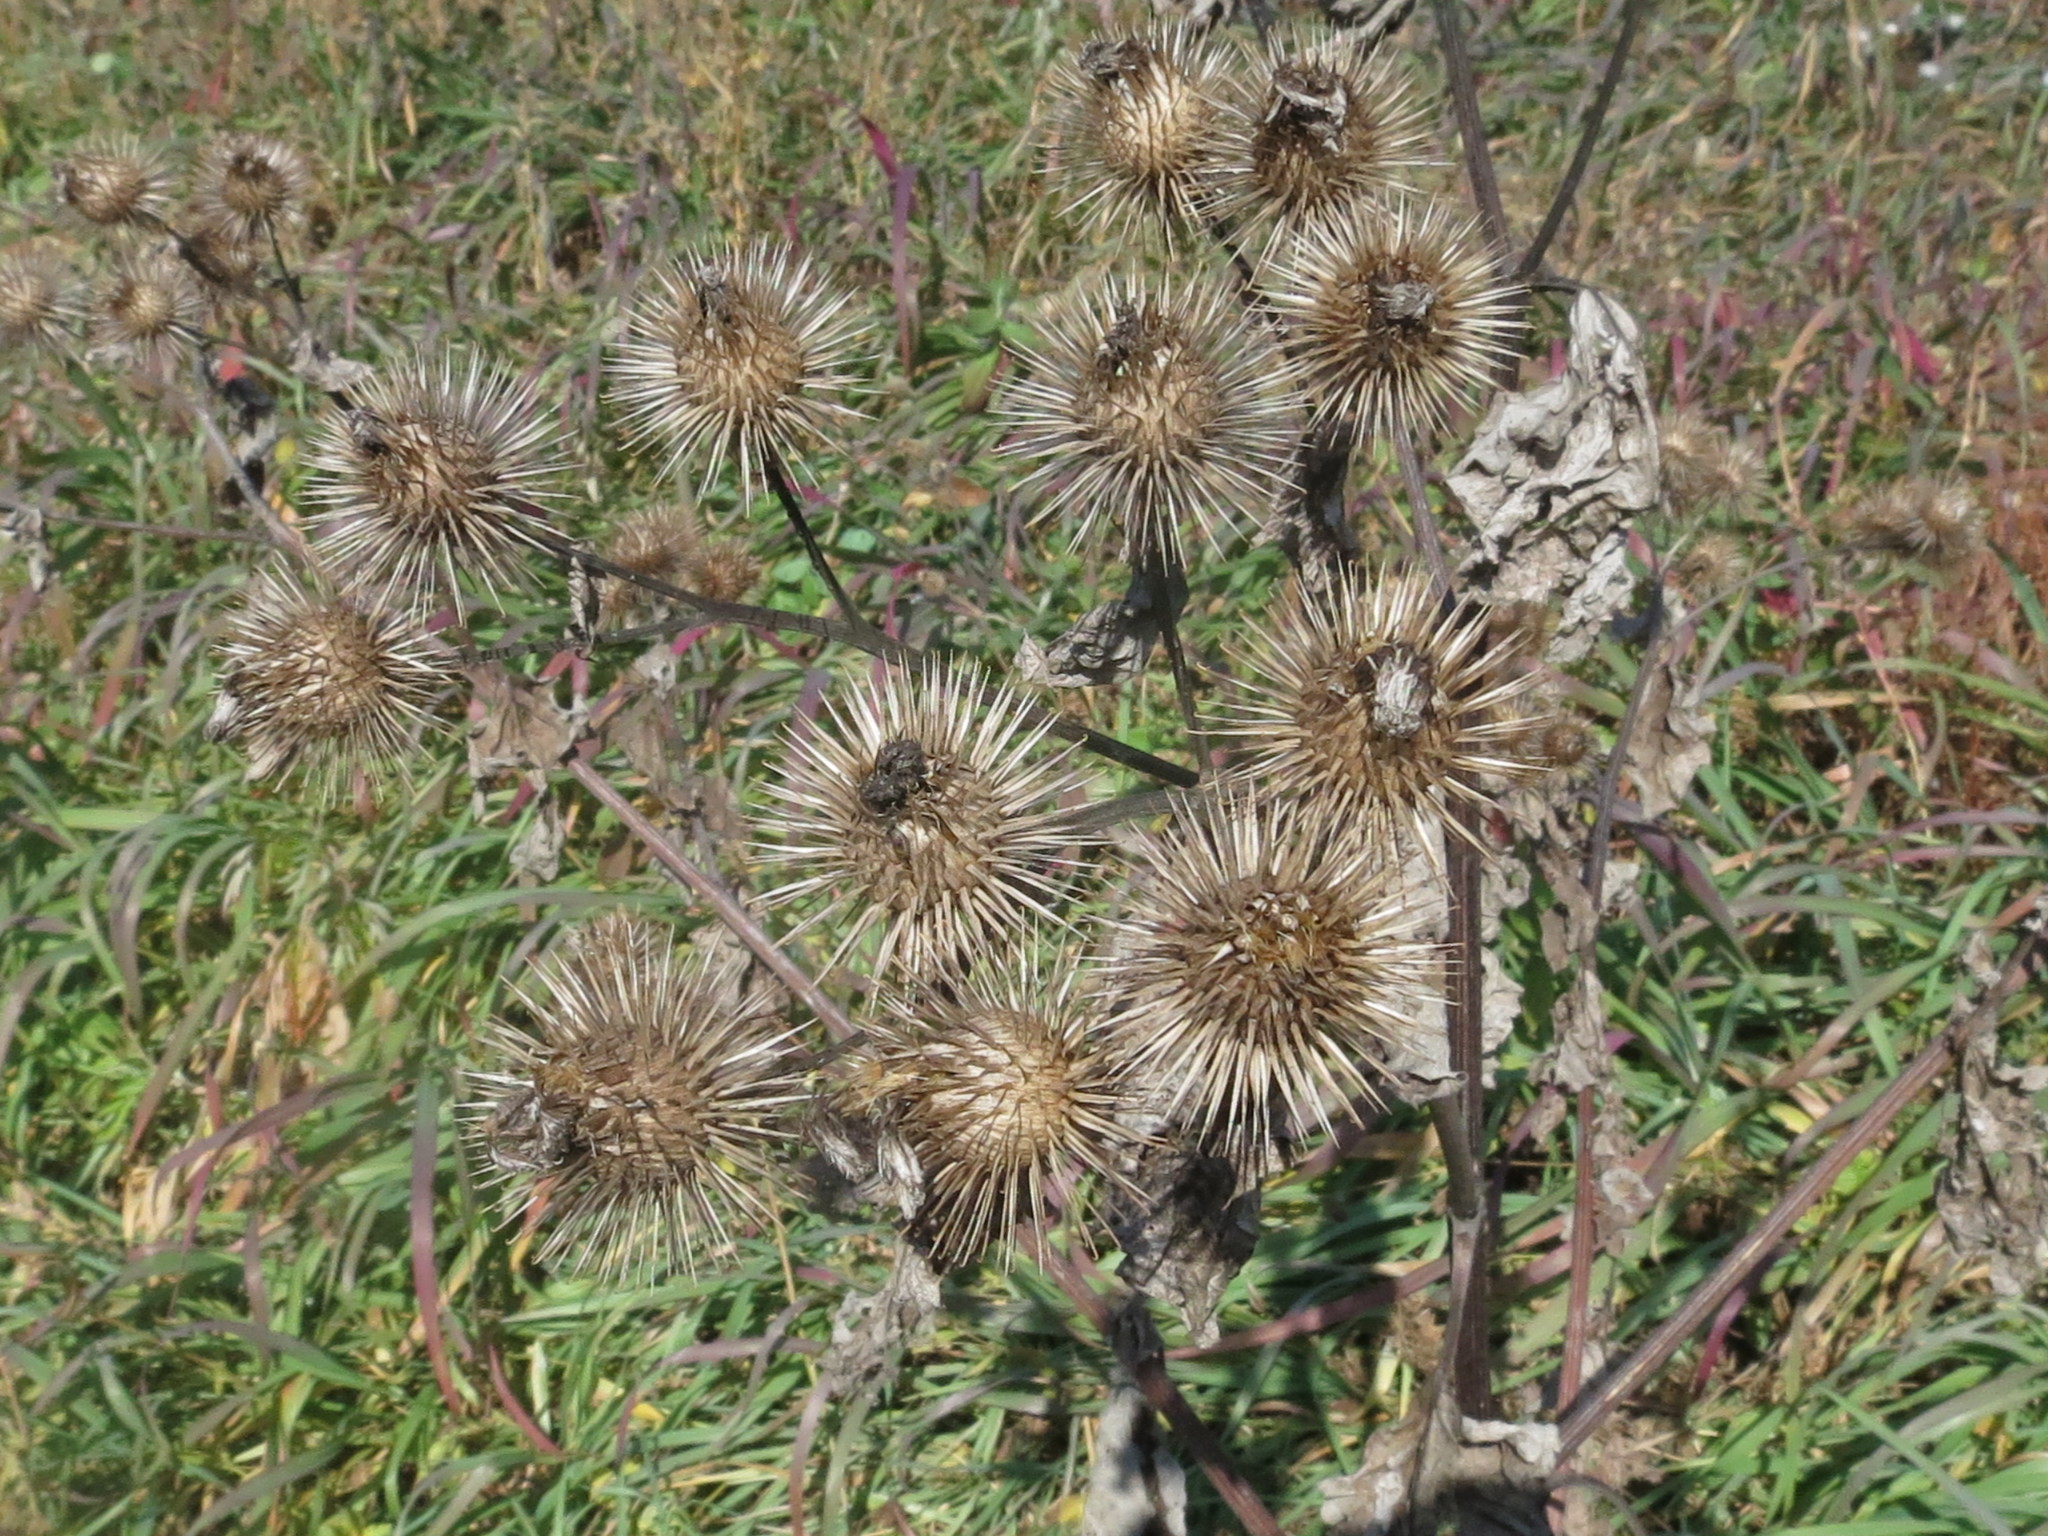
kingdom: Plantae
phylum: Tracheophyta
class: Magnoliopsida
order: Asterales
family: Asteraceae
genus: Arctium
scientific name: Arctium lappa
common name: Greater burdock
